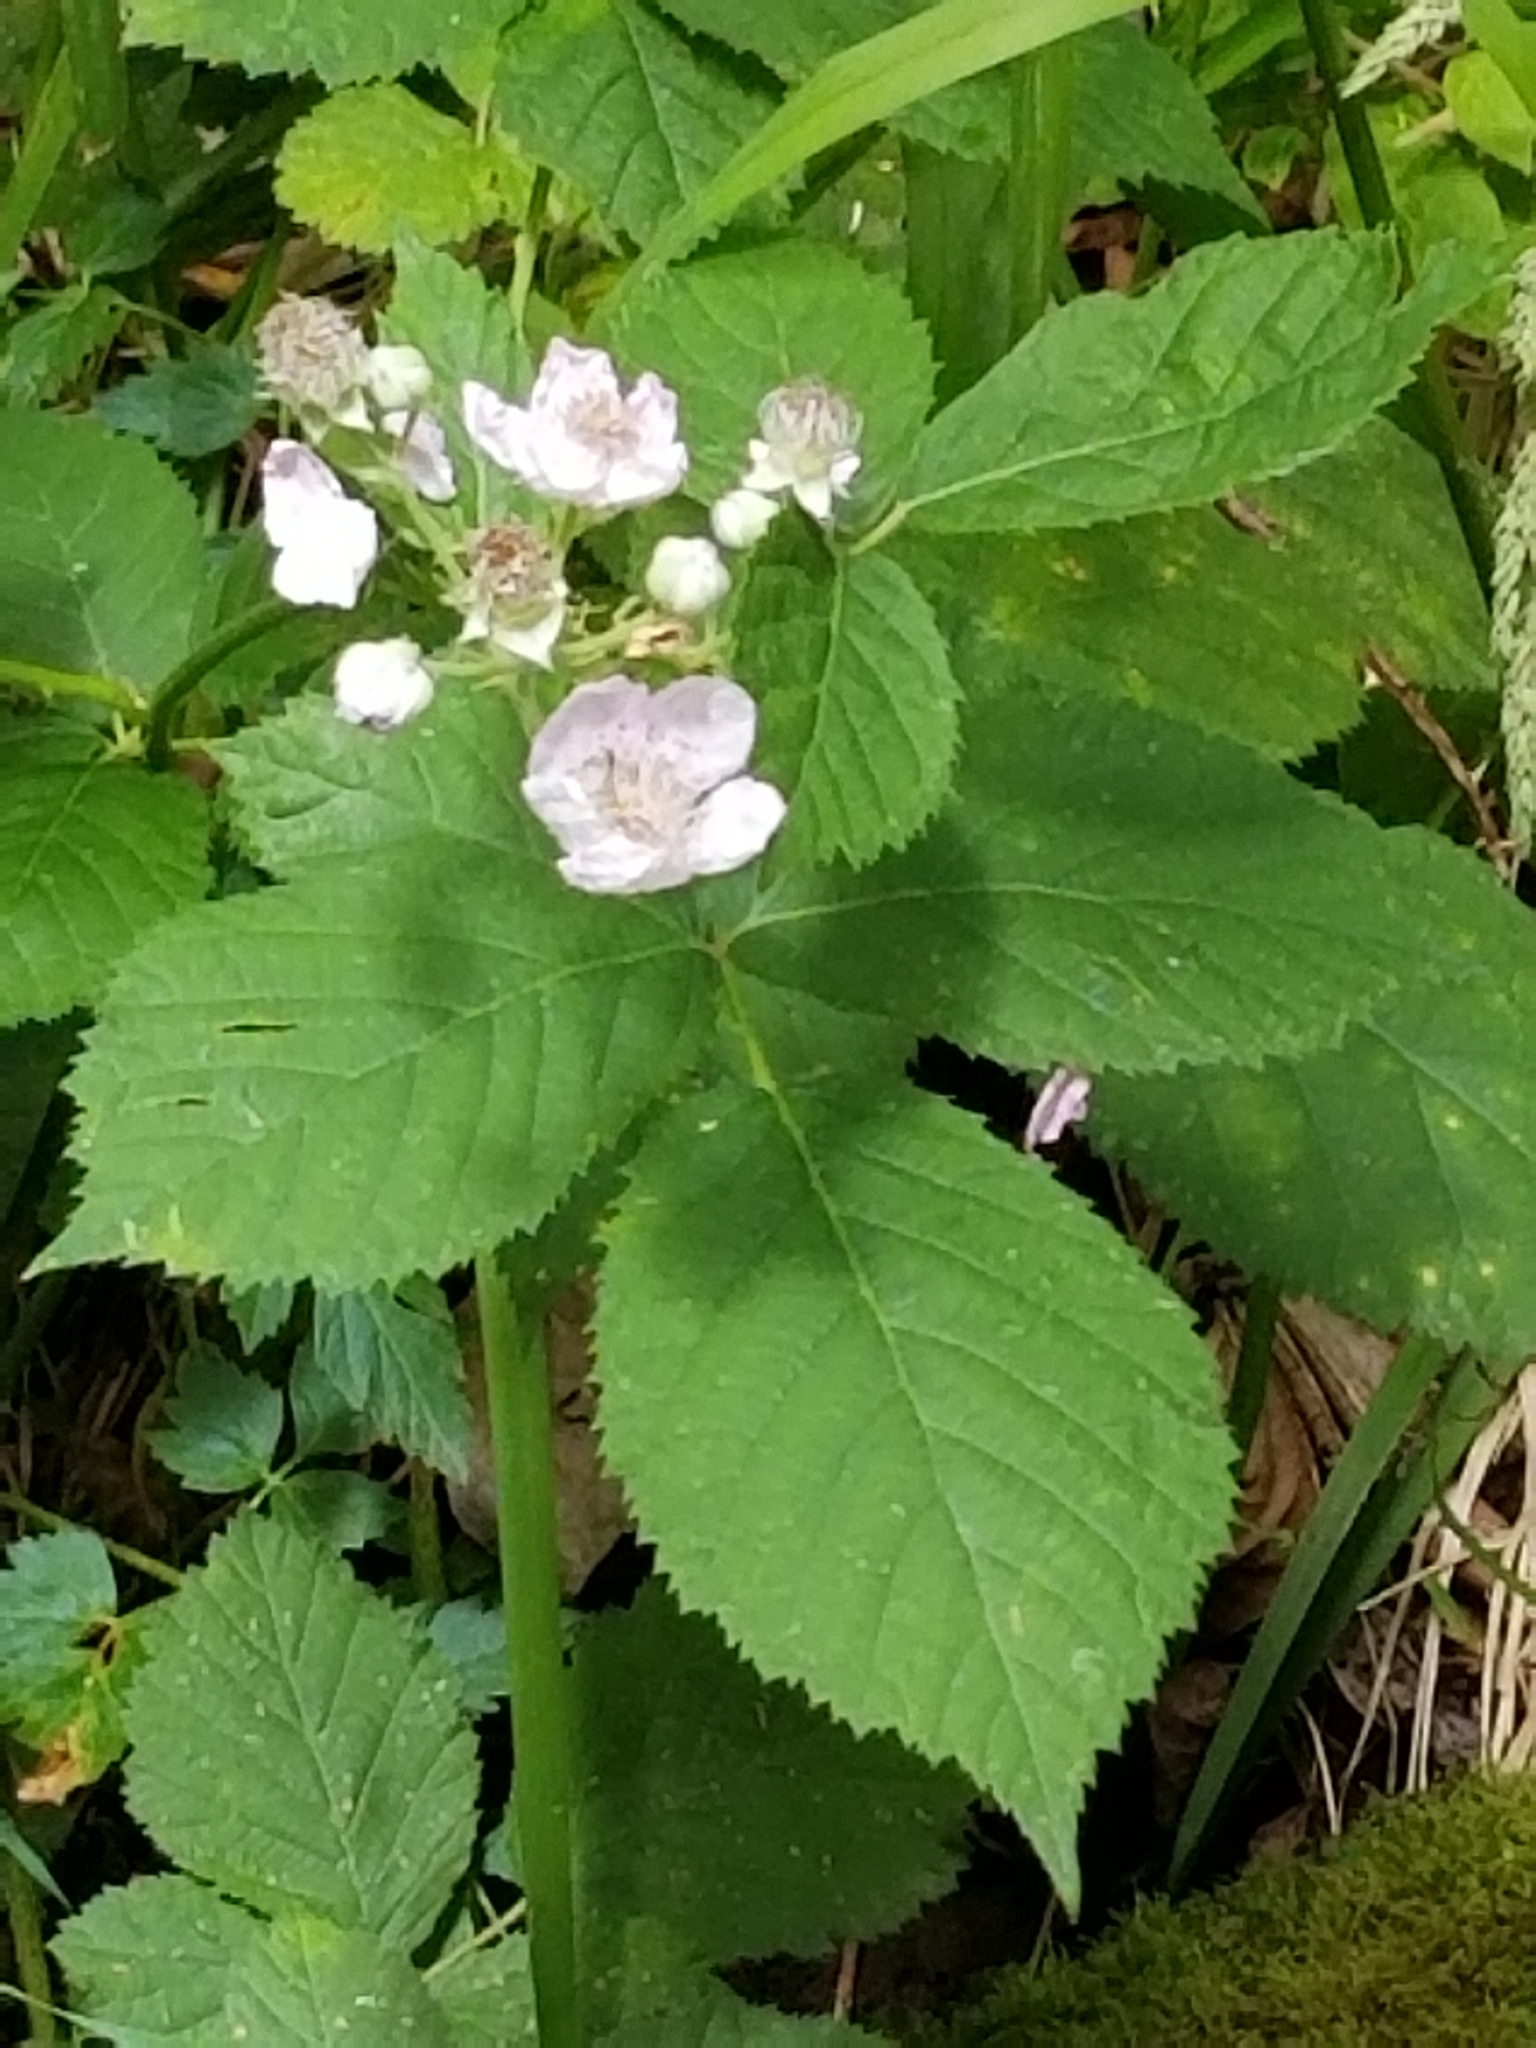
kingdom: Plantae
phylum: Tracheophyta
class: Magnoliopsida
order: Rosales
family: Rosaceae
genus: Rubus
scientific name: Rubus armeniacus
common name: Himalayan blackberry
